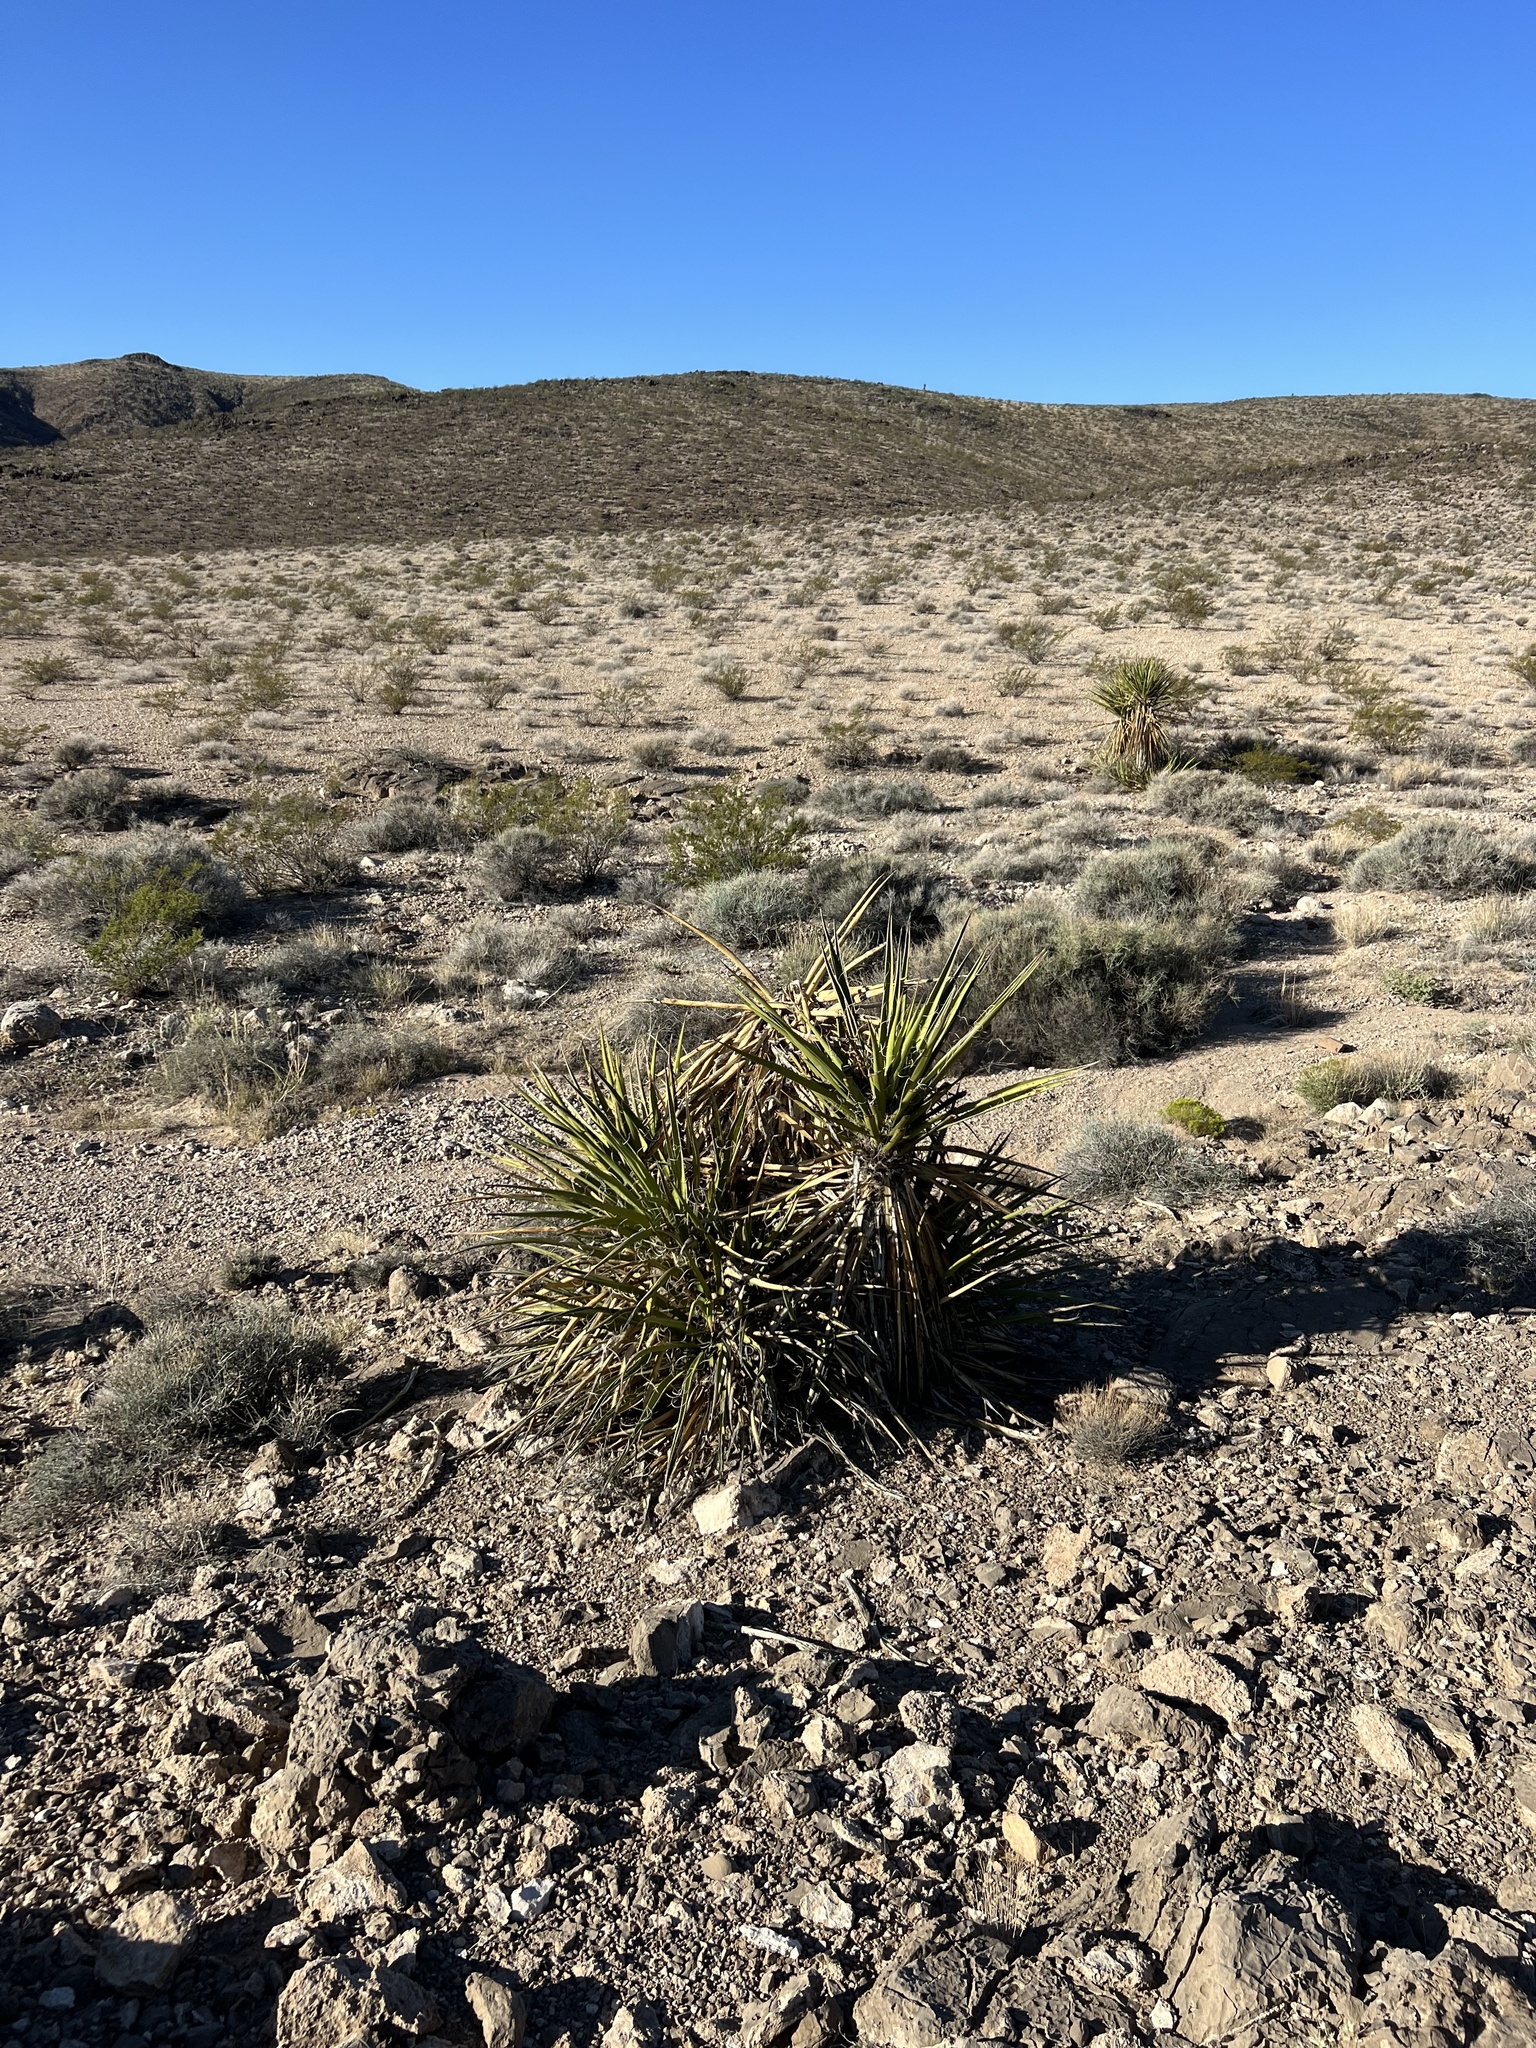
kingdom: Plantae
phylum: Tracheophyta
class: Liliopsida
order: Asparagales
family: Asparagaceae
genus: Yucca
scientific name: Yucca schidigera
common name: Mojave yucca
